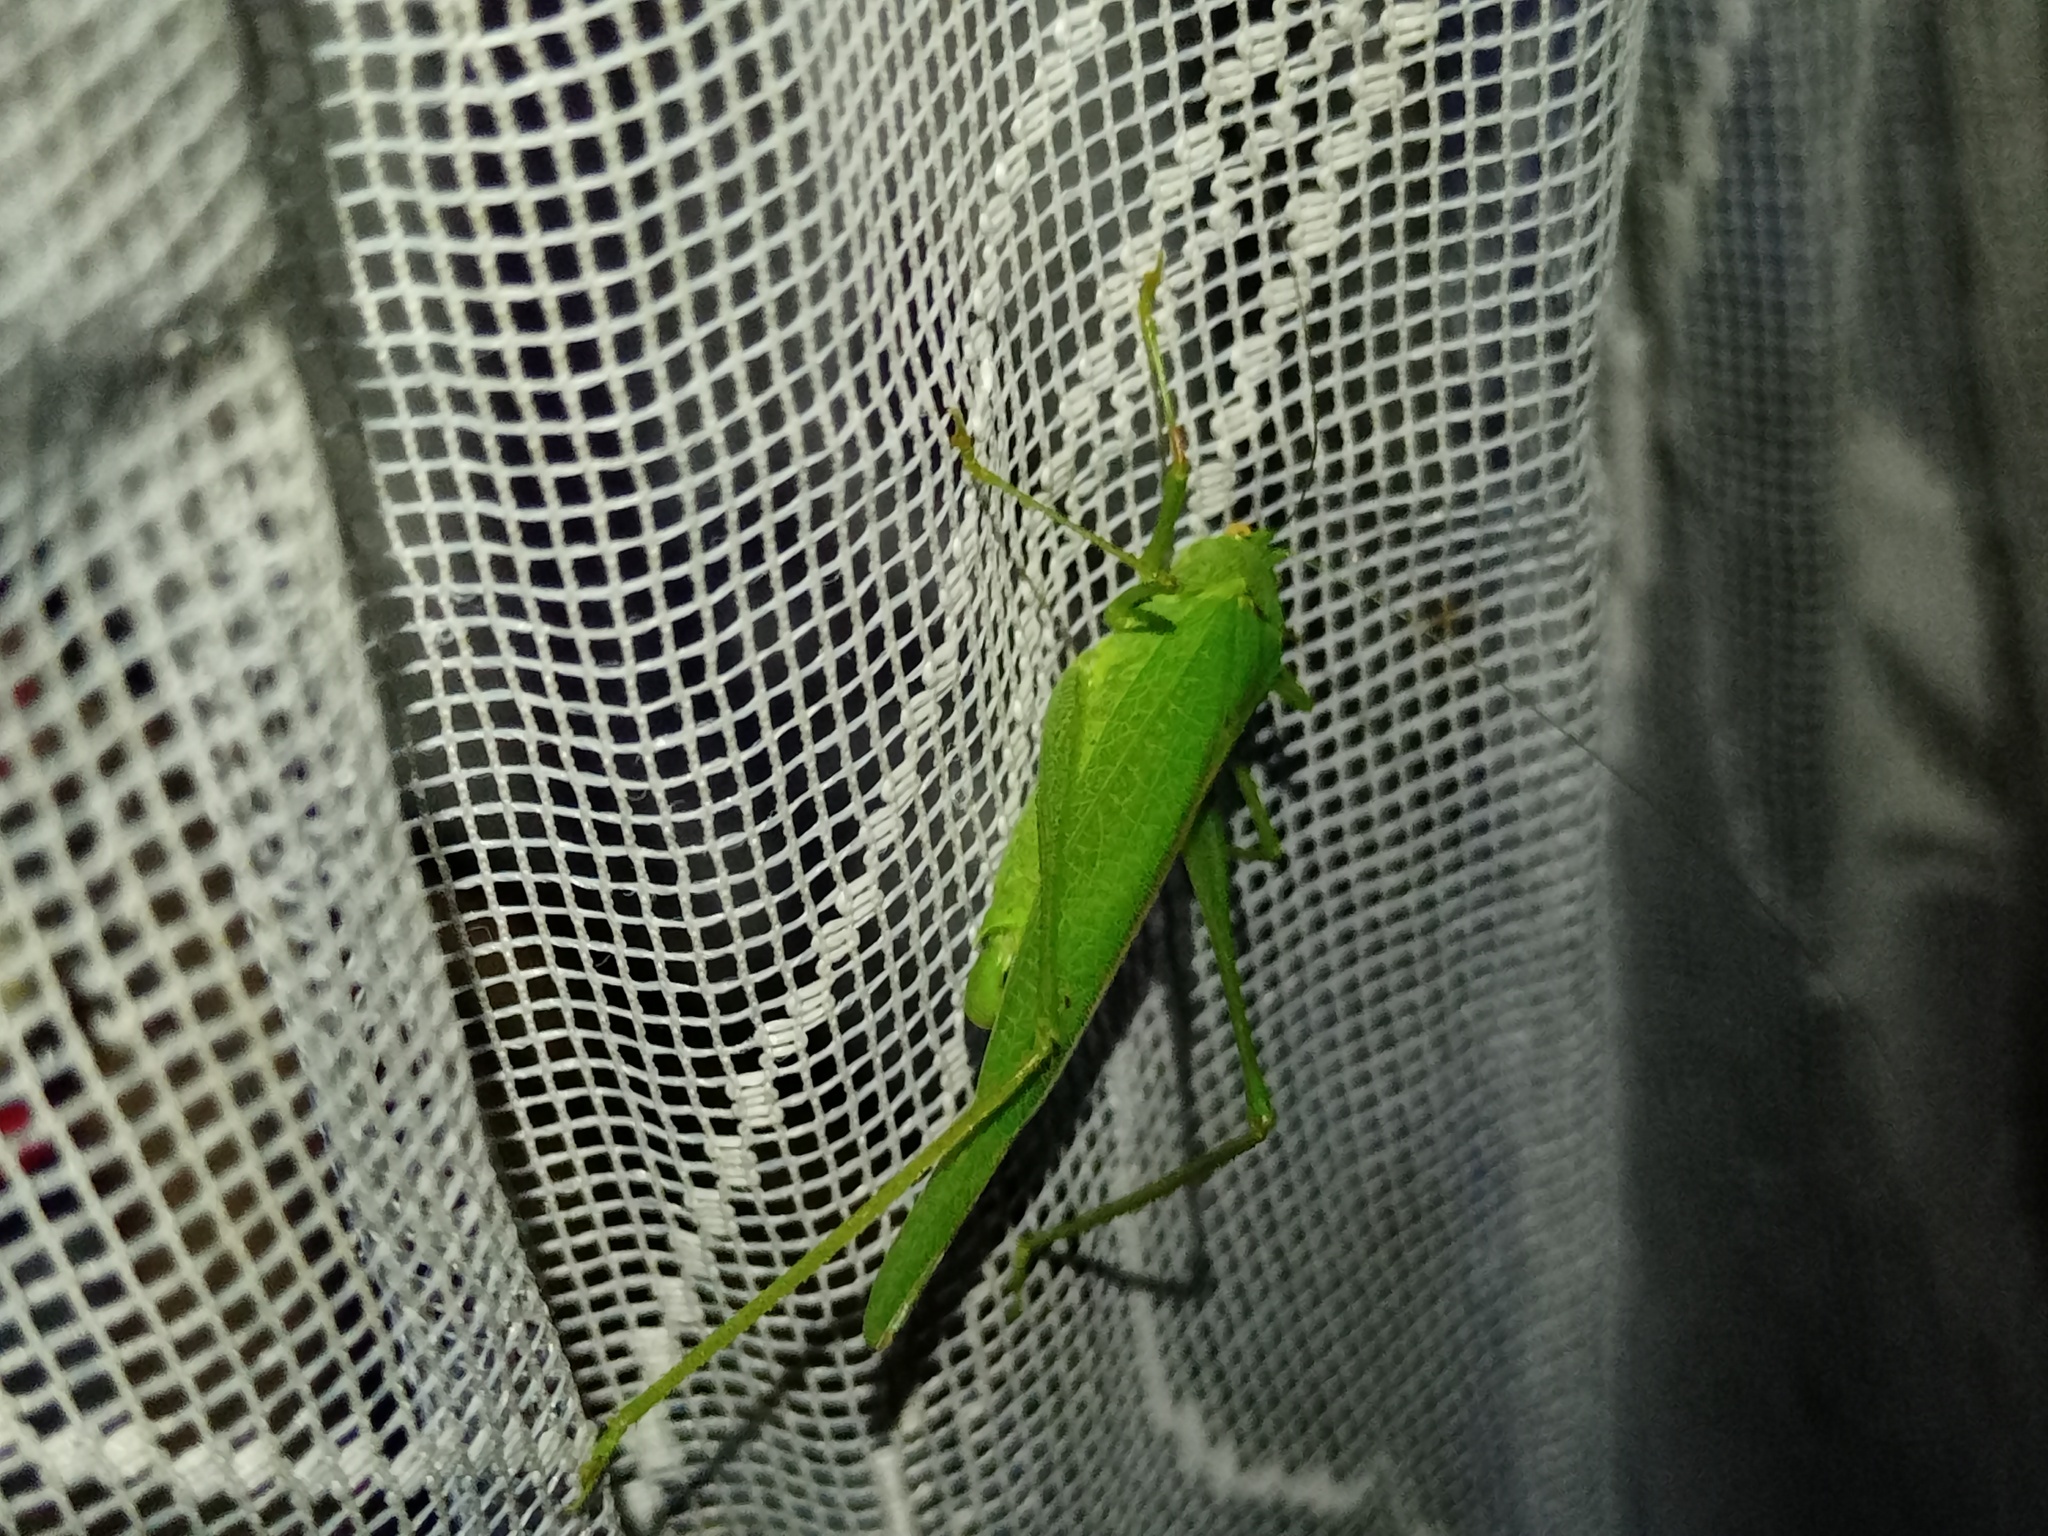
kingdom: Animalia
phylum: Arthropoda
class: Insecta
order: Orthoptera
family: Tettigoniidae
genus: Phaneroptera
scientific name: Phaneroptera nana
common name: Southern sickle bush-cricket
